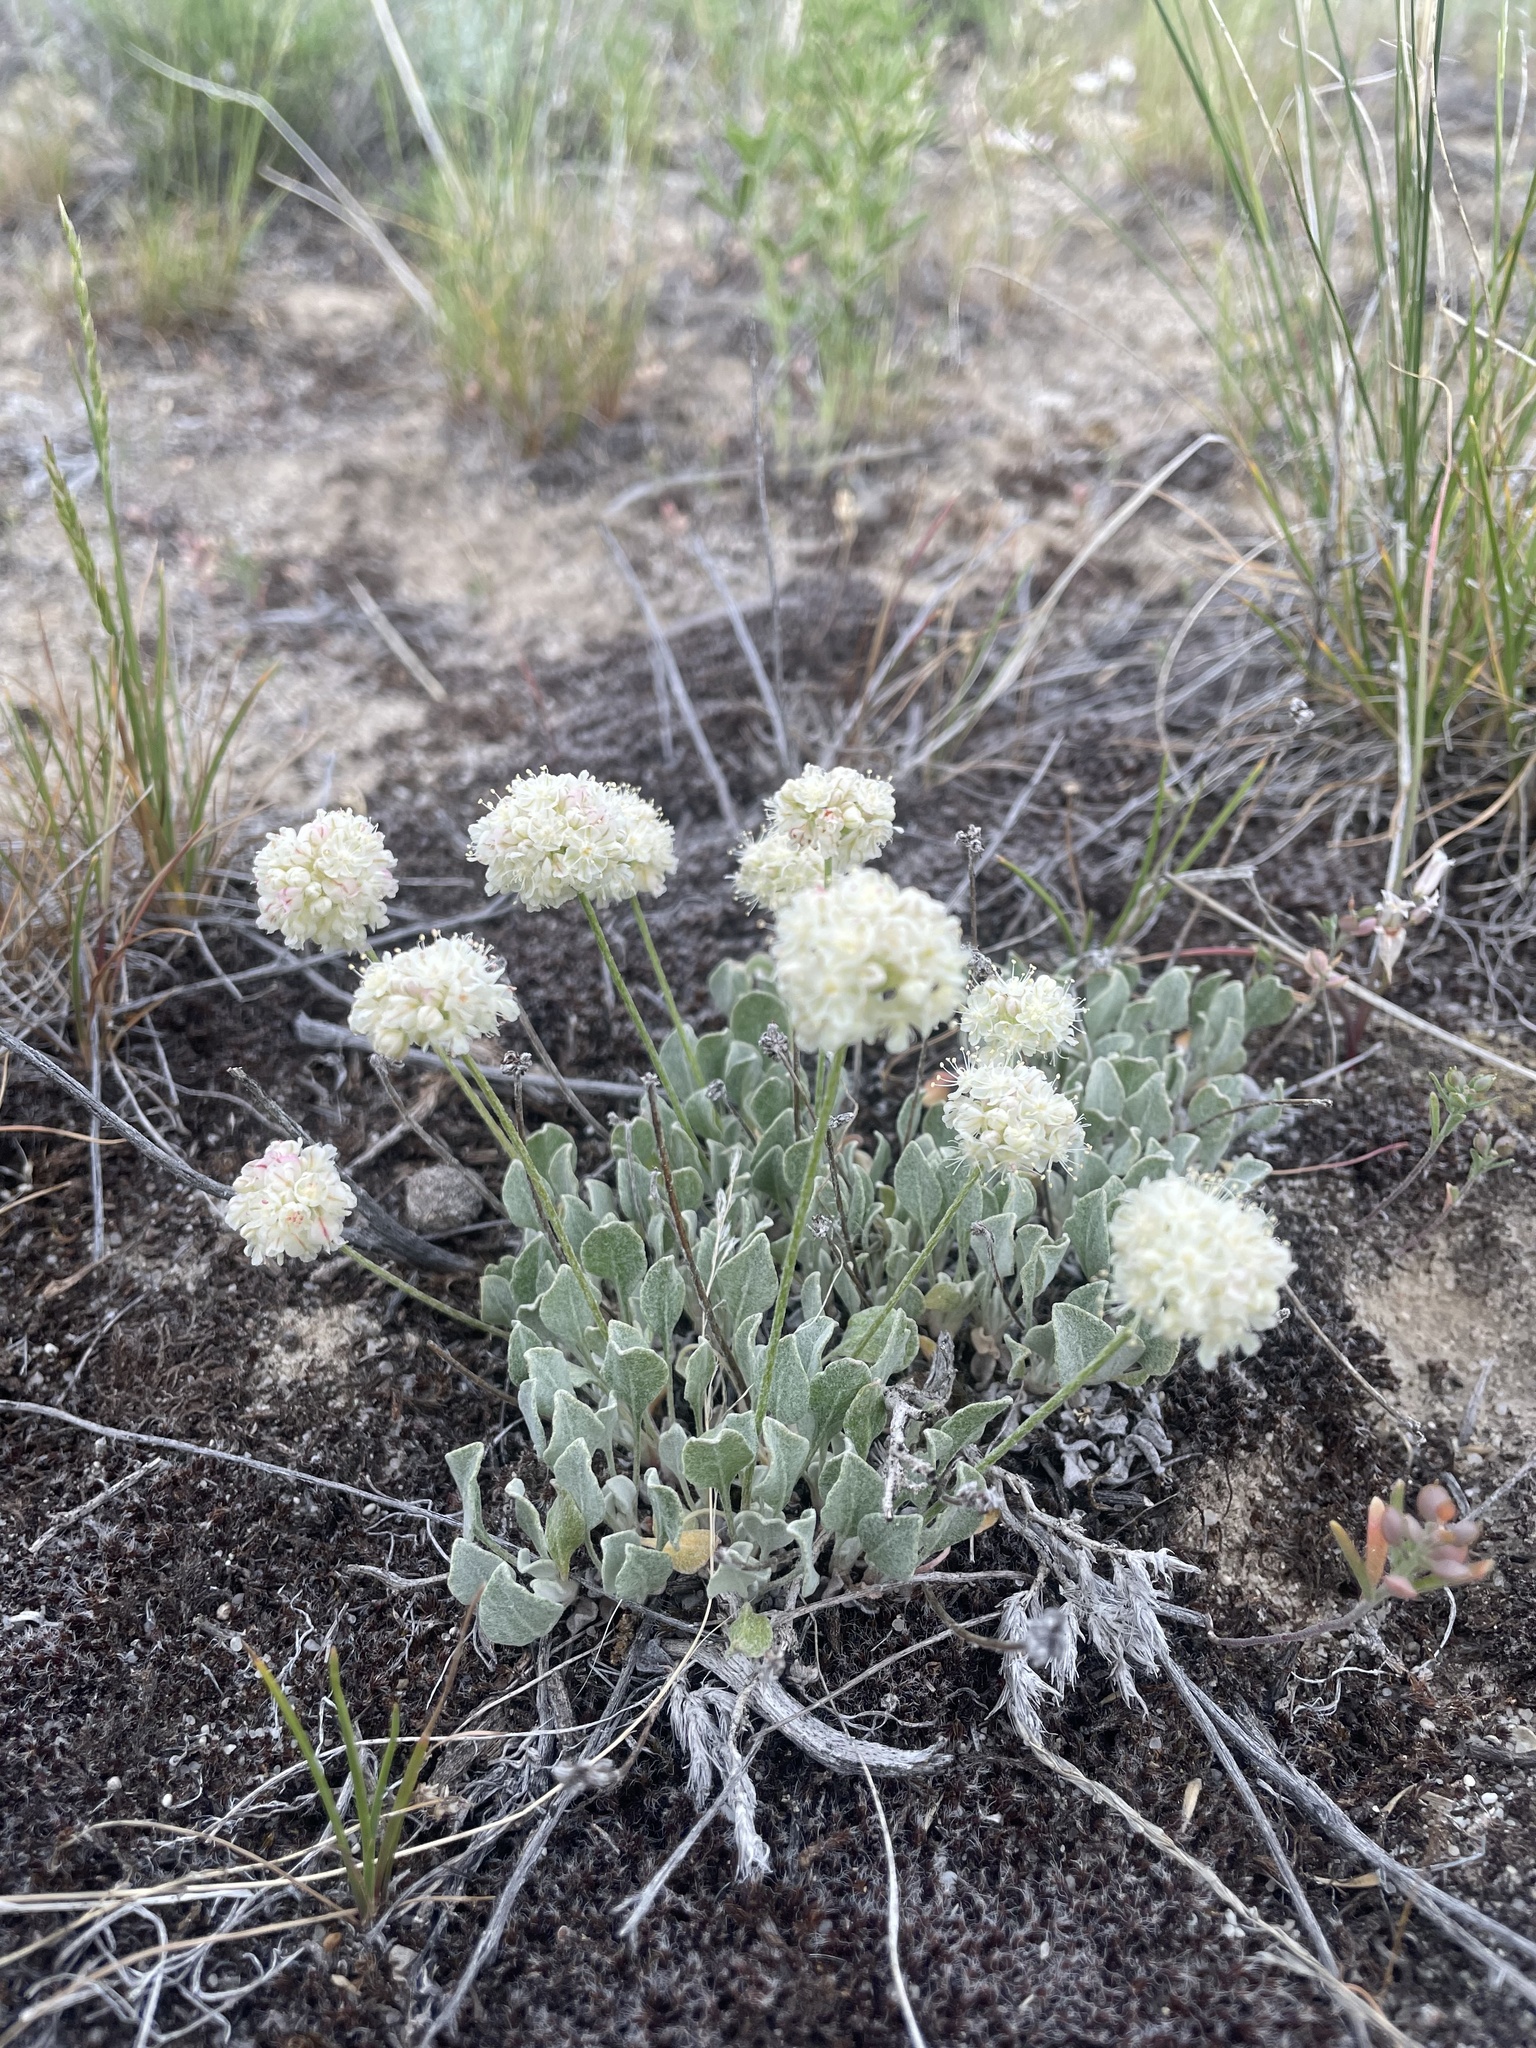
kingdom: Plantae
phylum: Tracheophyta
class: Magnoliopsida
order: Caryophyllales
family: Polygonaceae
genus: Eriogonum
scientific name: Eriogonum ovalifolium
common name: Cushion buckwheat
